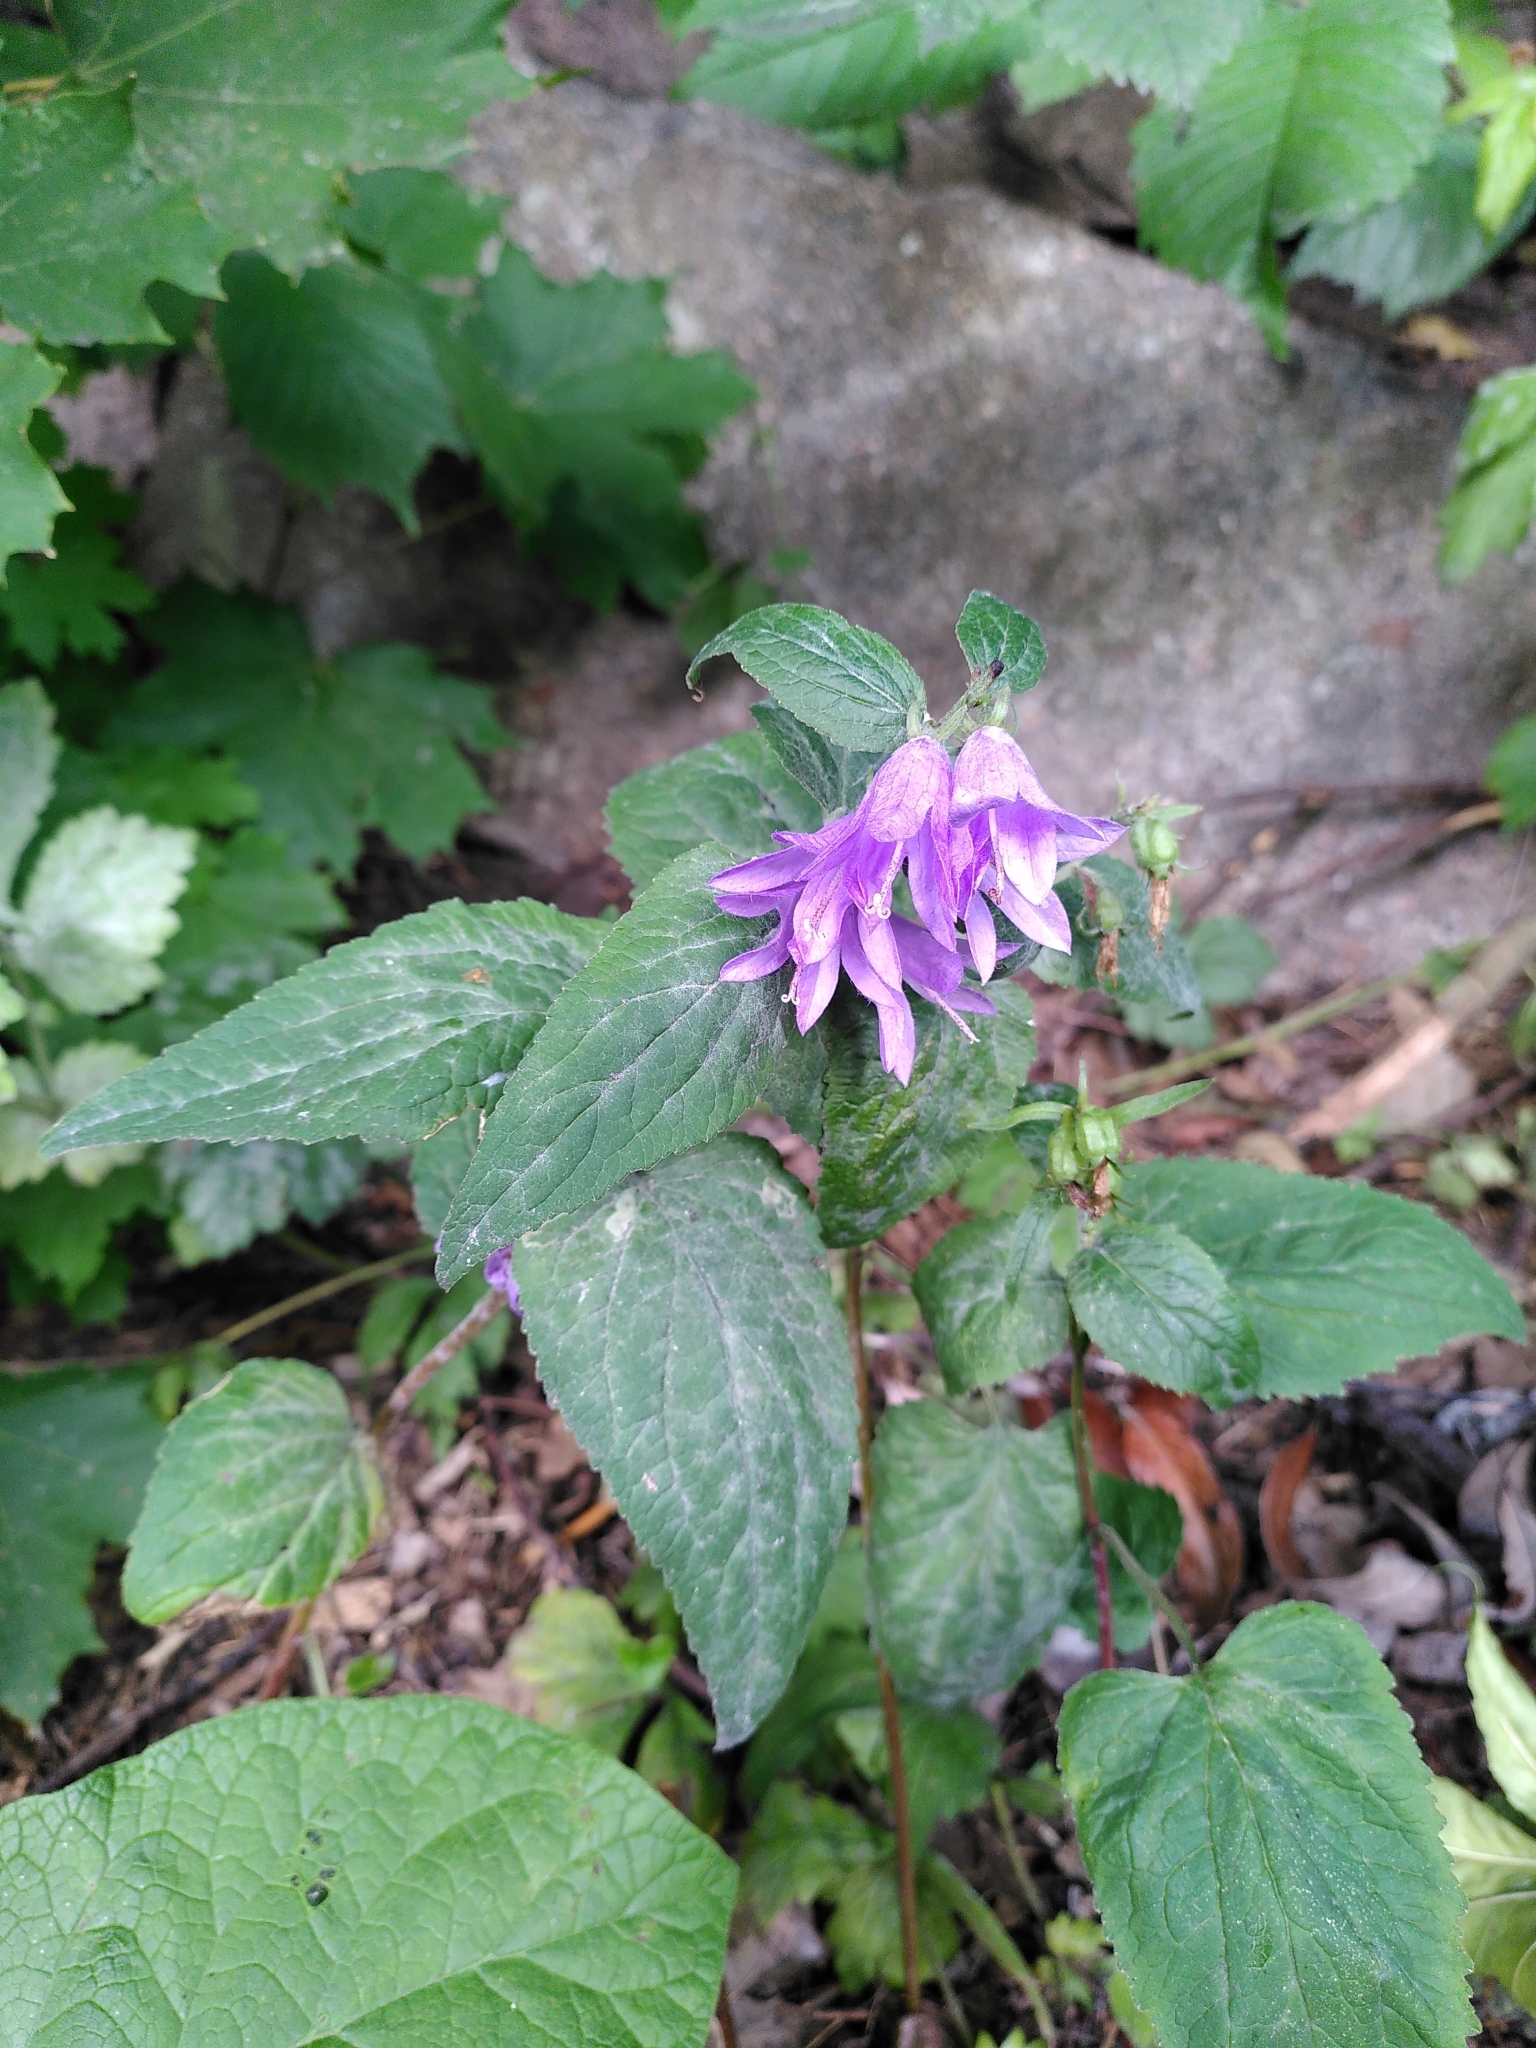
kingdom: Plantae
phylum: Tracheophyta
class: Magnoliopsida
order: Asterales
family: Campanulaceae
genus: Campanula
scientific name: Campanula rapunculoides
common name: Creeping bellflower
